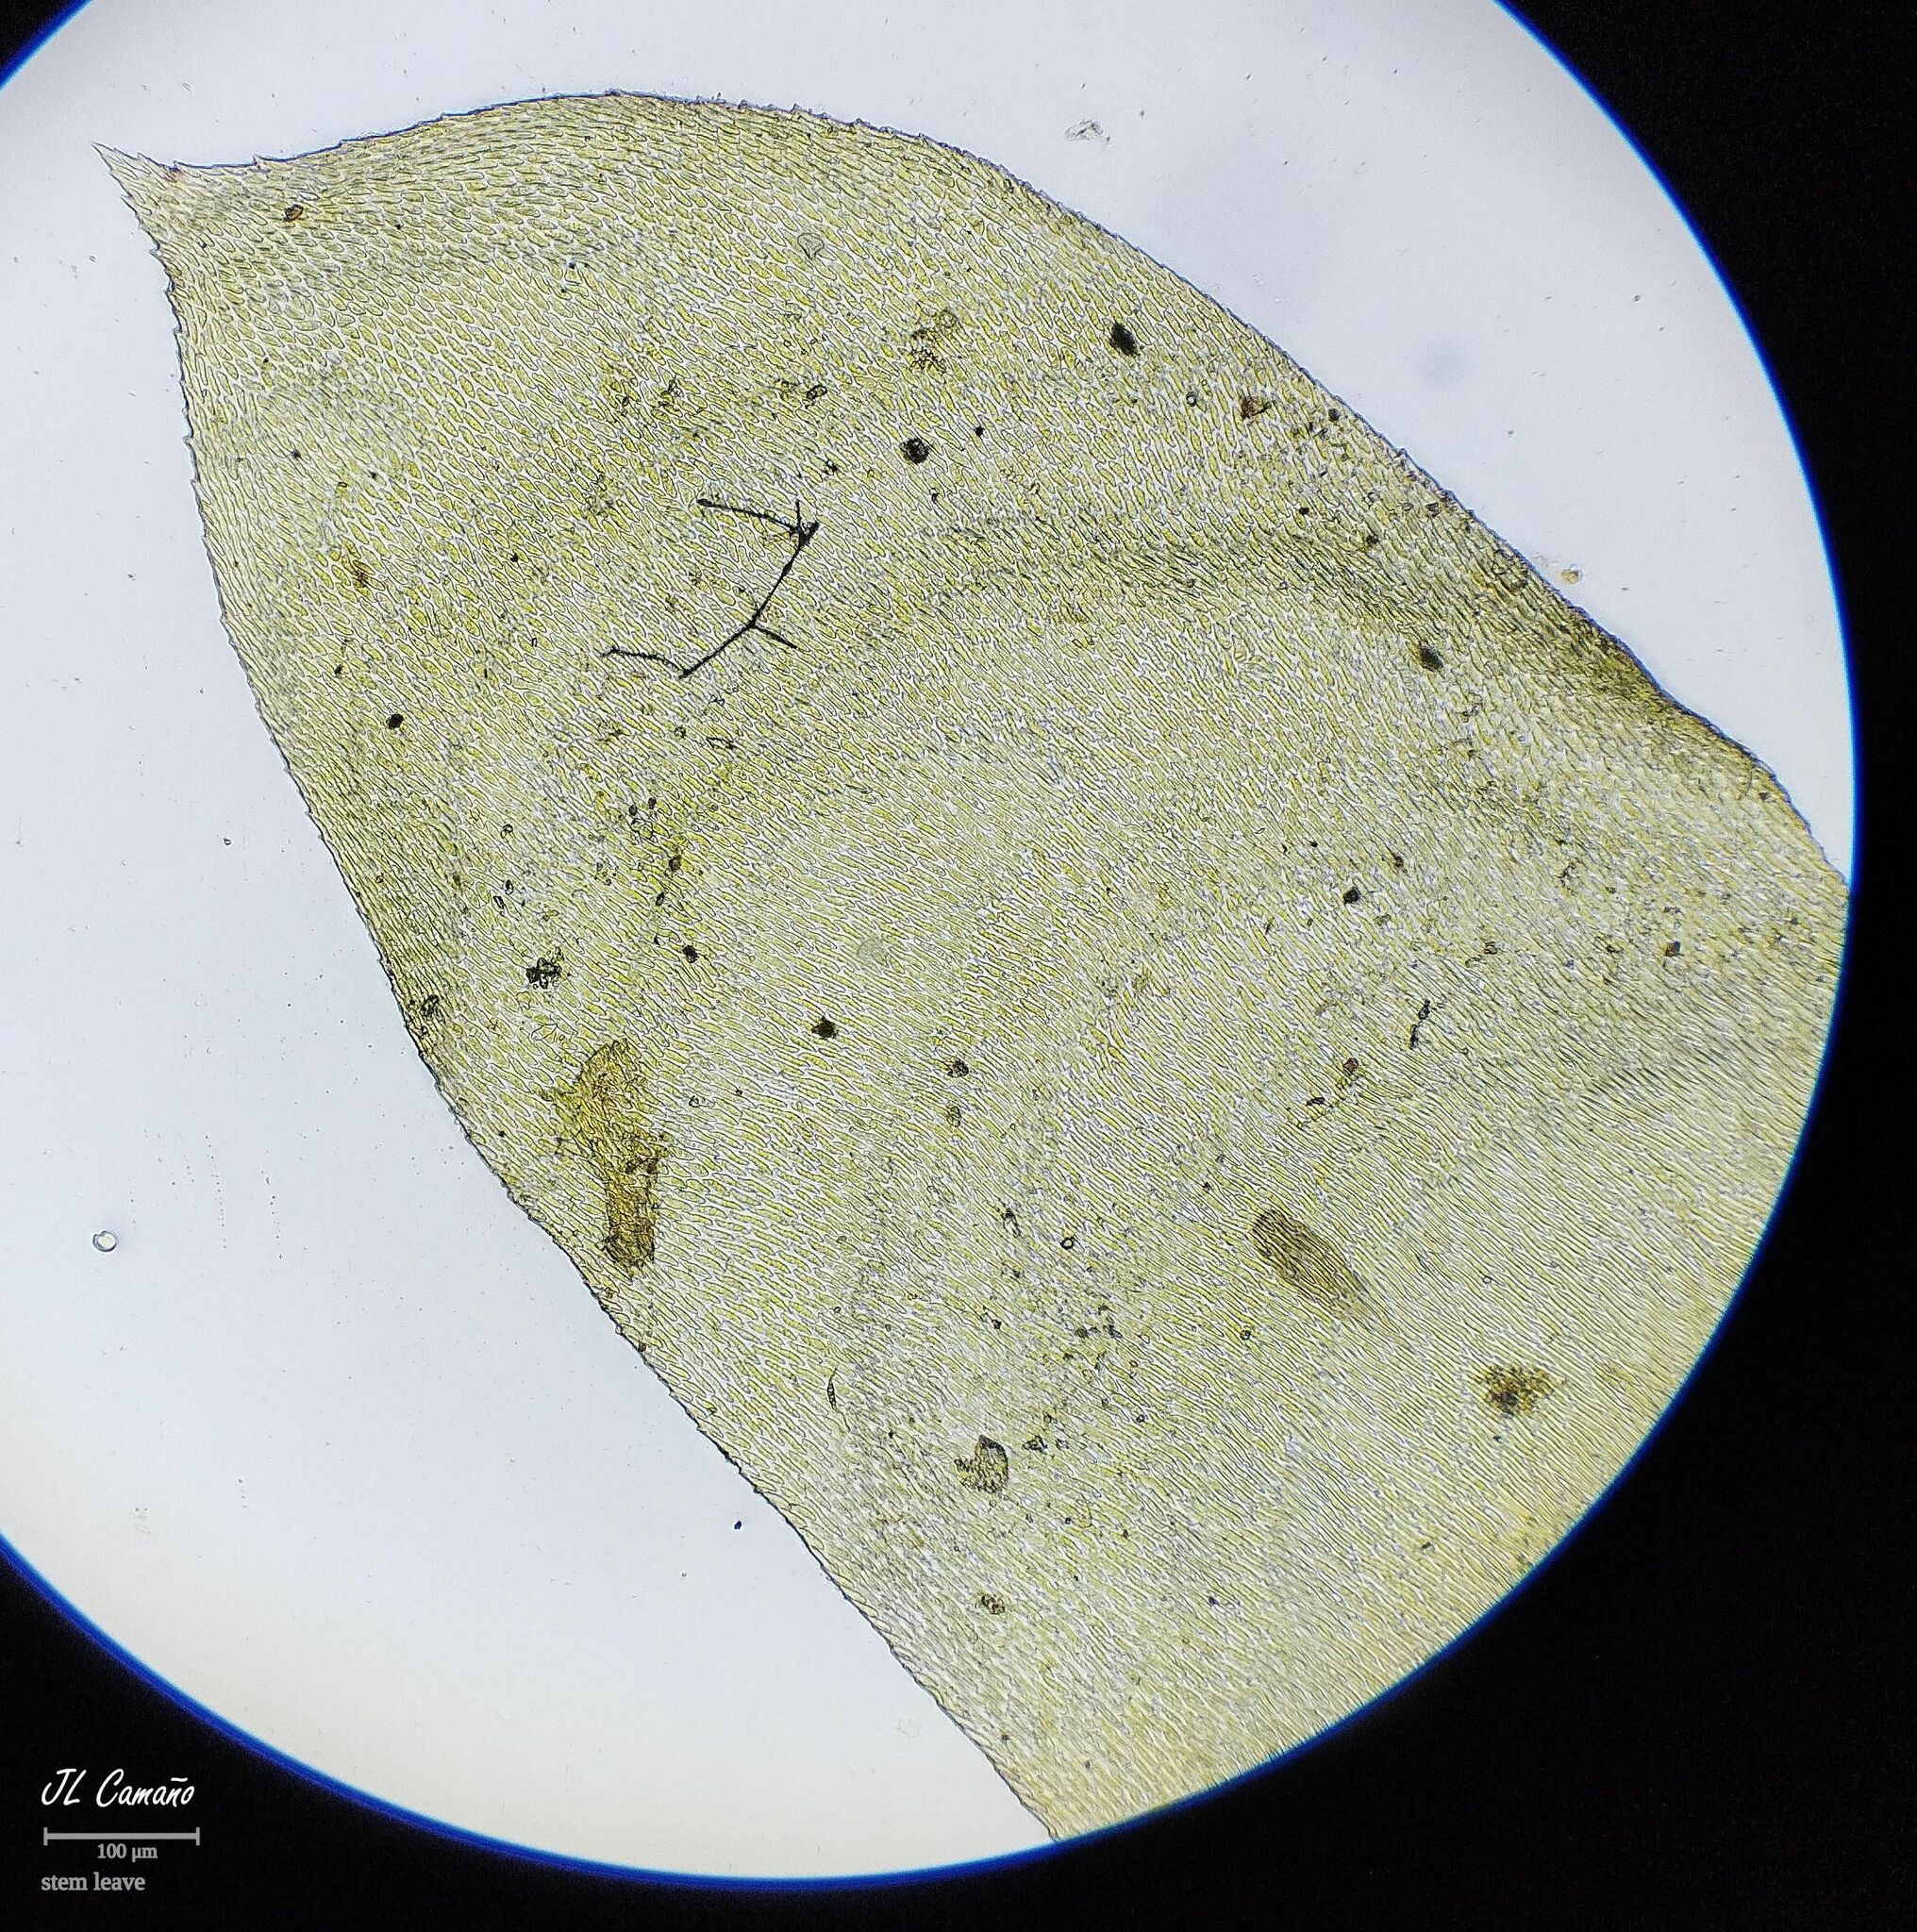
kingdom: Plantae
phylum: Bryophyta
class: Bryopsida
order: Hypnales
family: Neckeraceae
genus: Exsertotheca
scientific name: Exsertotheca crispa
